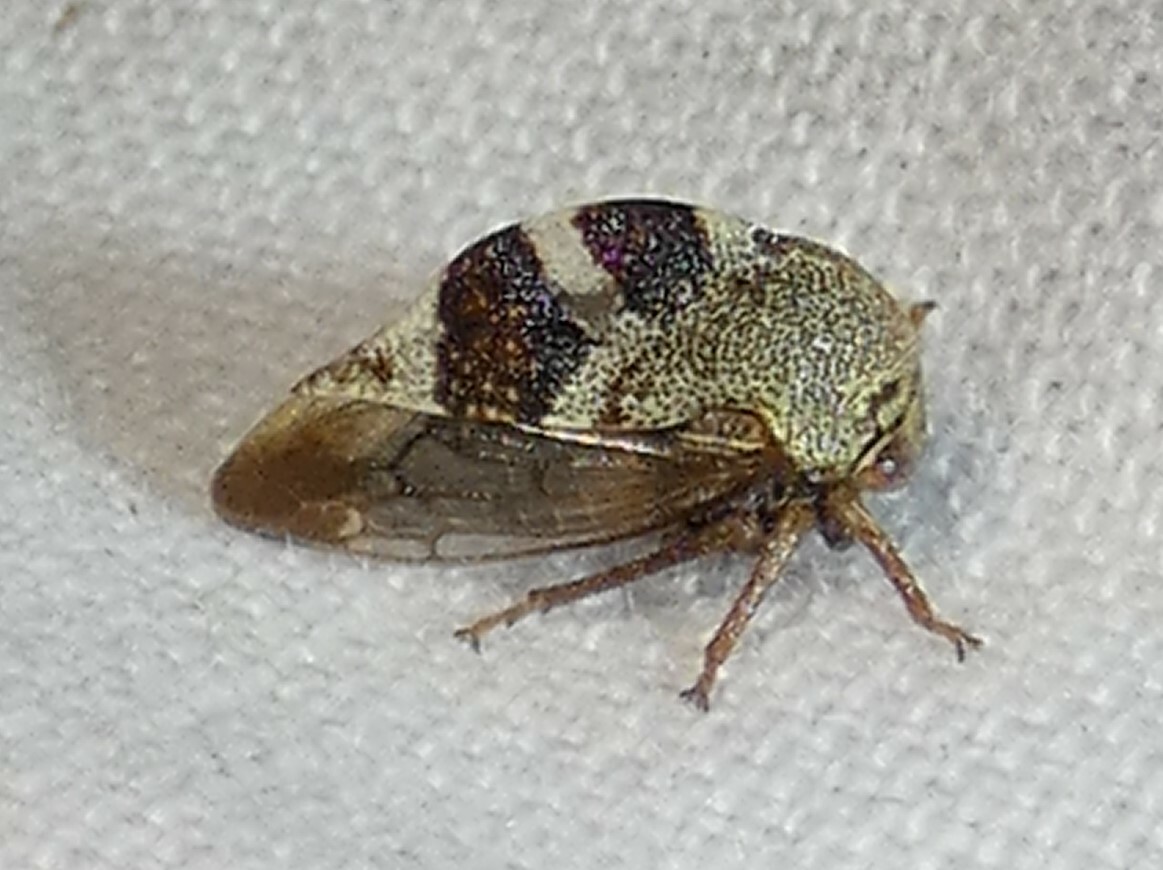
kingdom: Animalia
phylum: Arthropoda
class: Insecta
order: Hemiptera
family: Membracidae
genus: Cyrtolobus
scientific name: Cyrtolobus tuberosa
